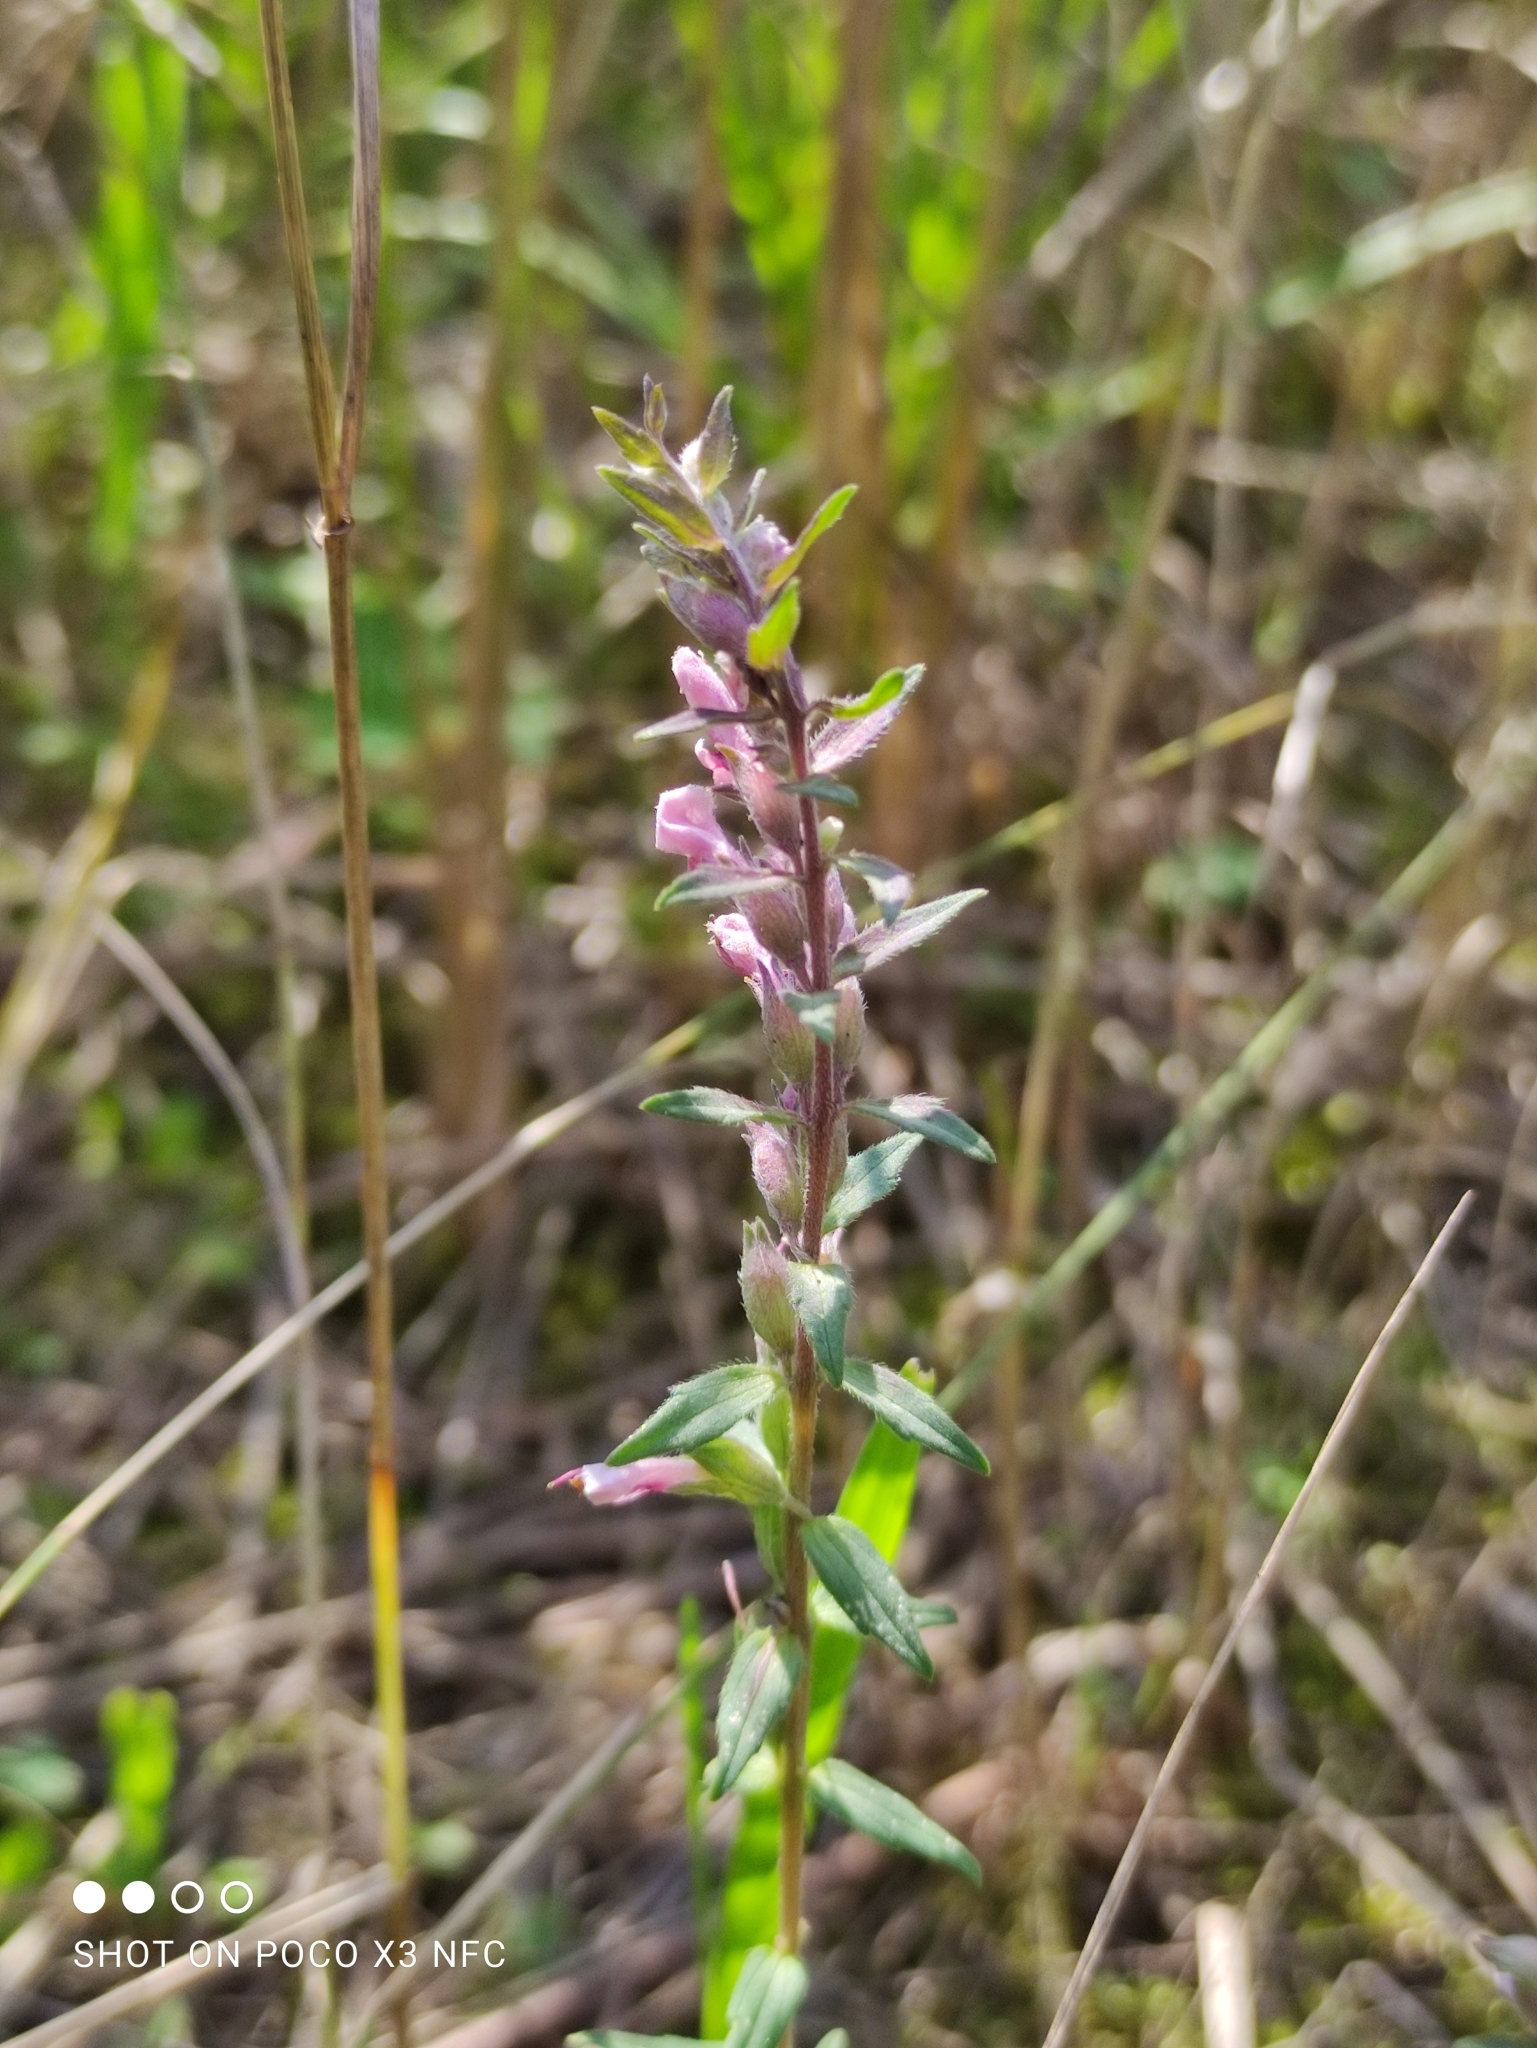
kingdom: Plantae
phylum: Tracheophyta
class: Magnoliopsida
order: Lamiales
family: Orobanchaceae
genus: Odontites
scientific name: Odontites vulgaris
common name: Broomrape
